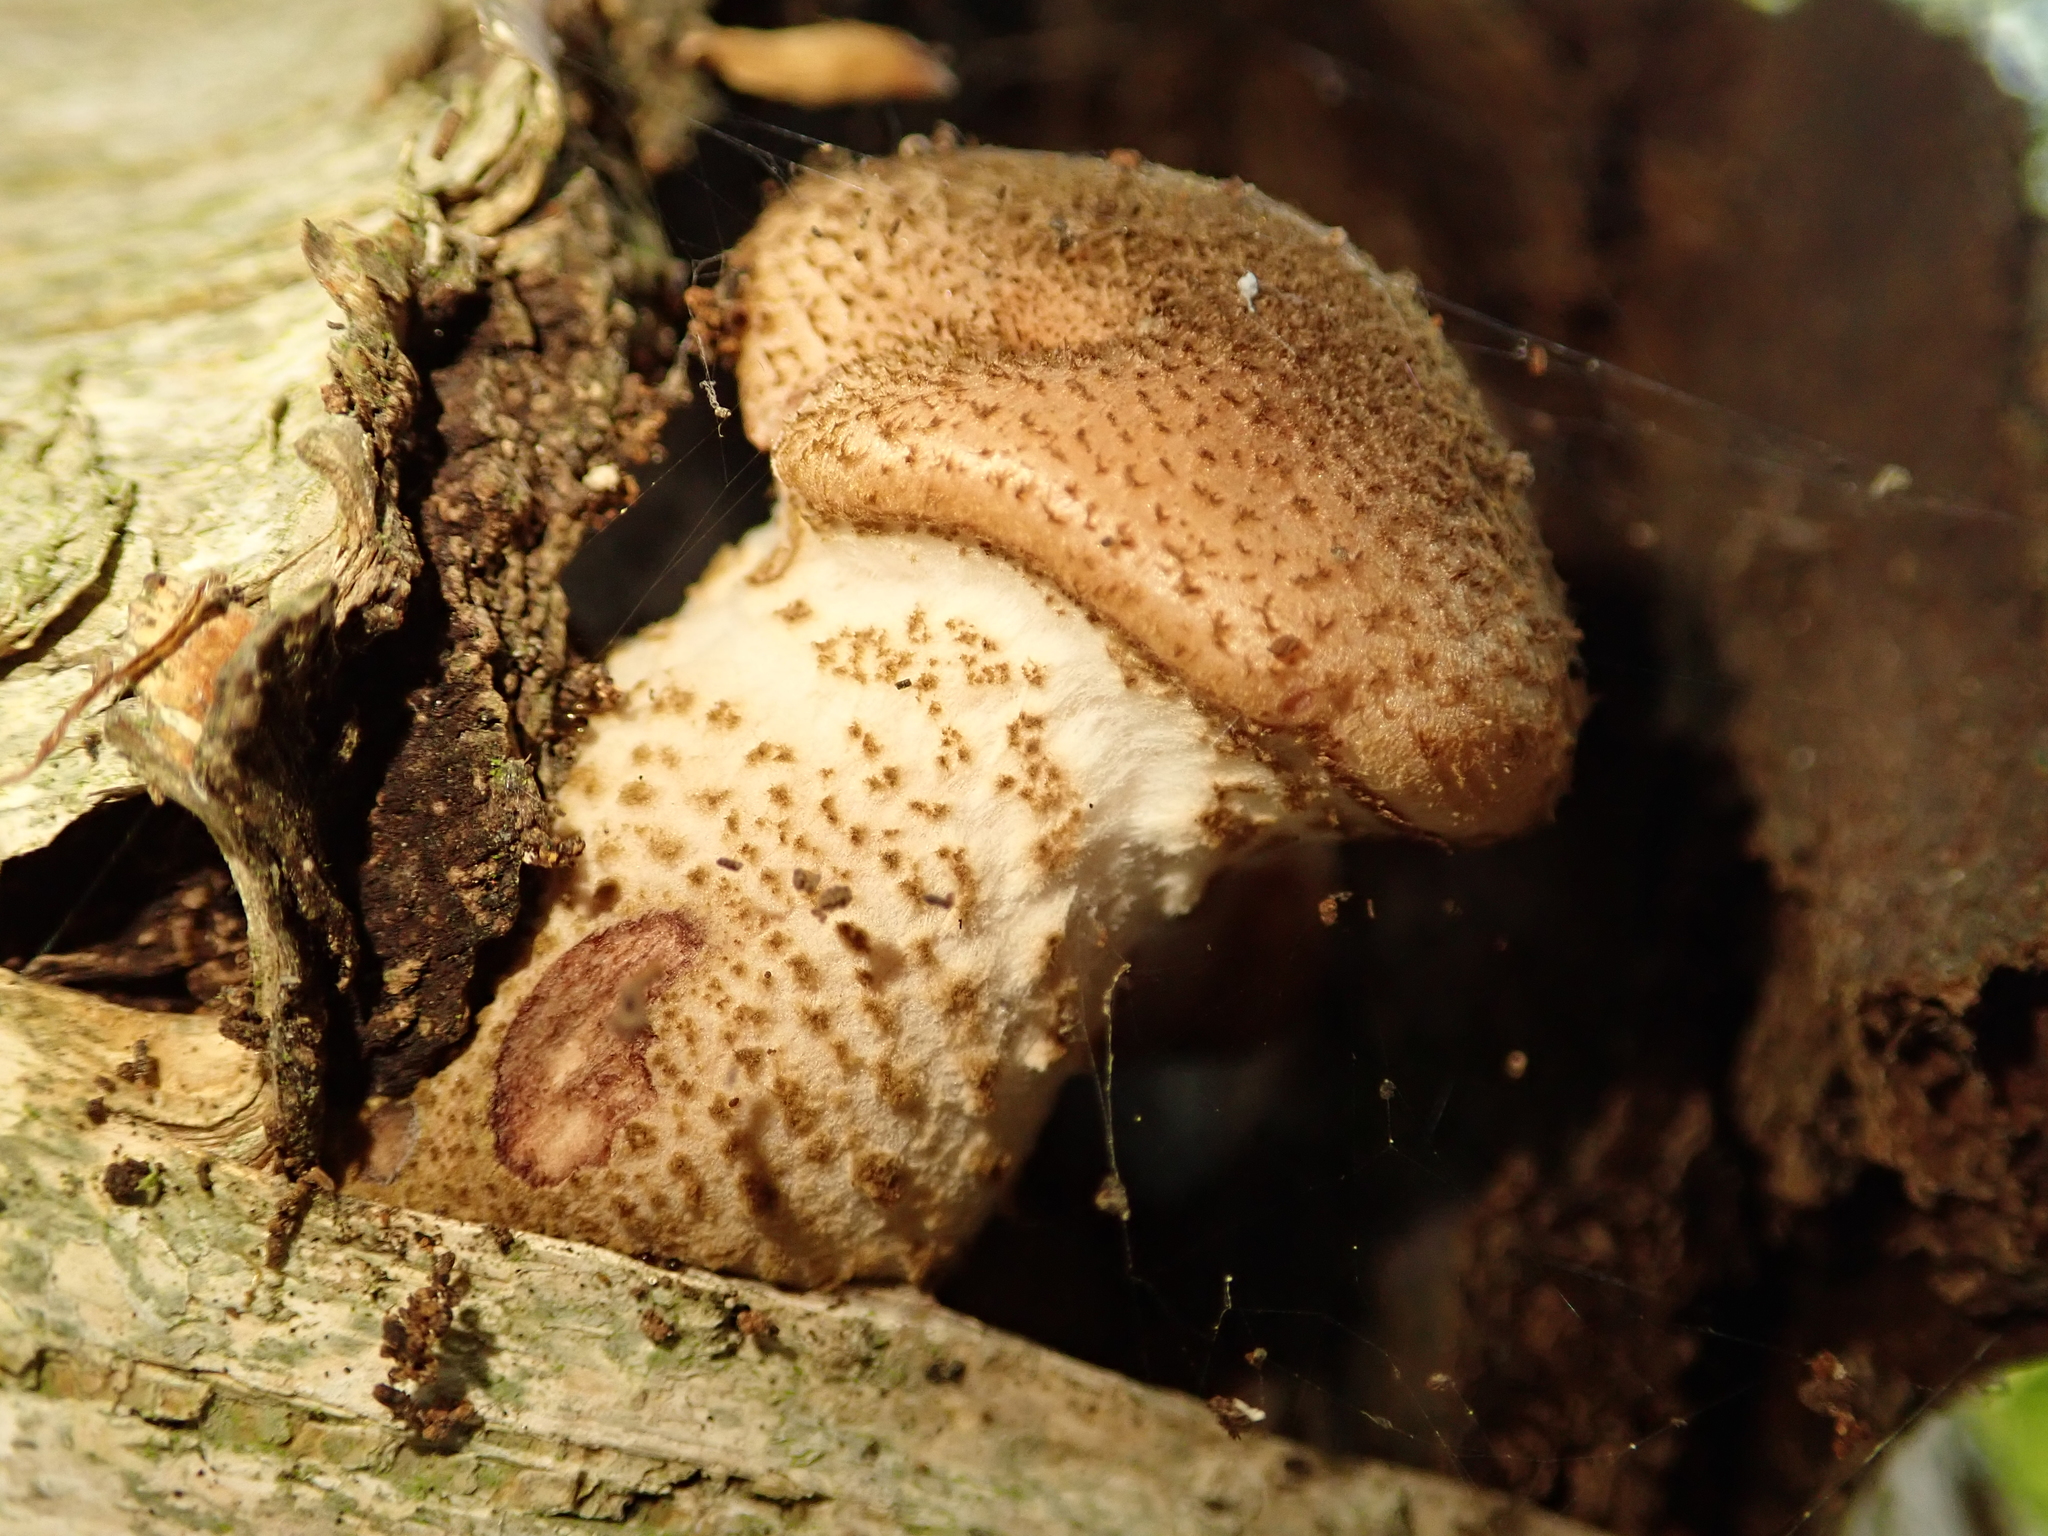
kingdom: Fungi
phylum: Basidiomycota
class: Agaricomycetes
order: Agaricales
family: Physalacriaceae
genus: Armillaria
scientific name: Armillaria ostoyae
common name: Dark honey fungus
